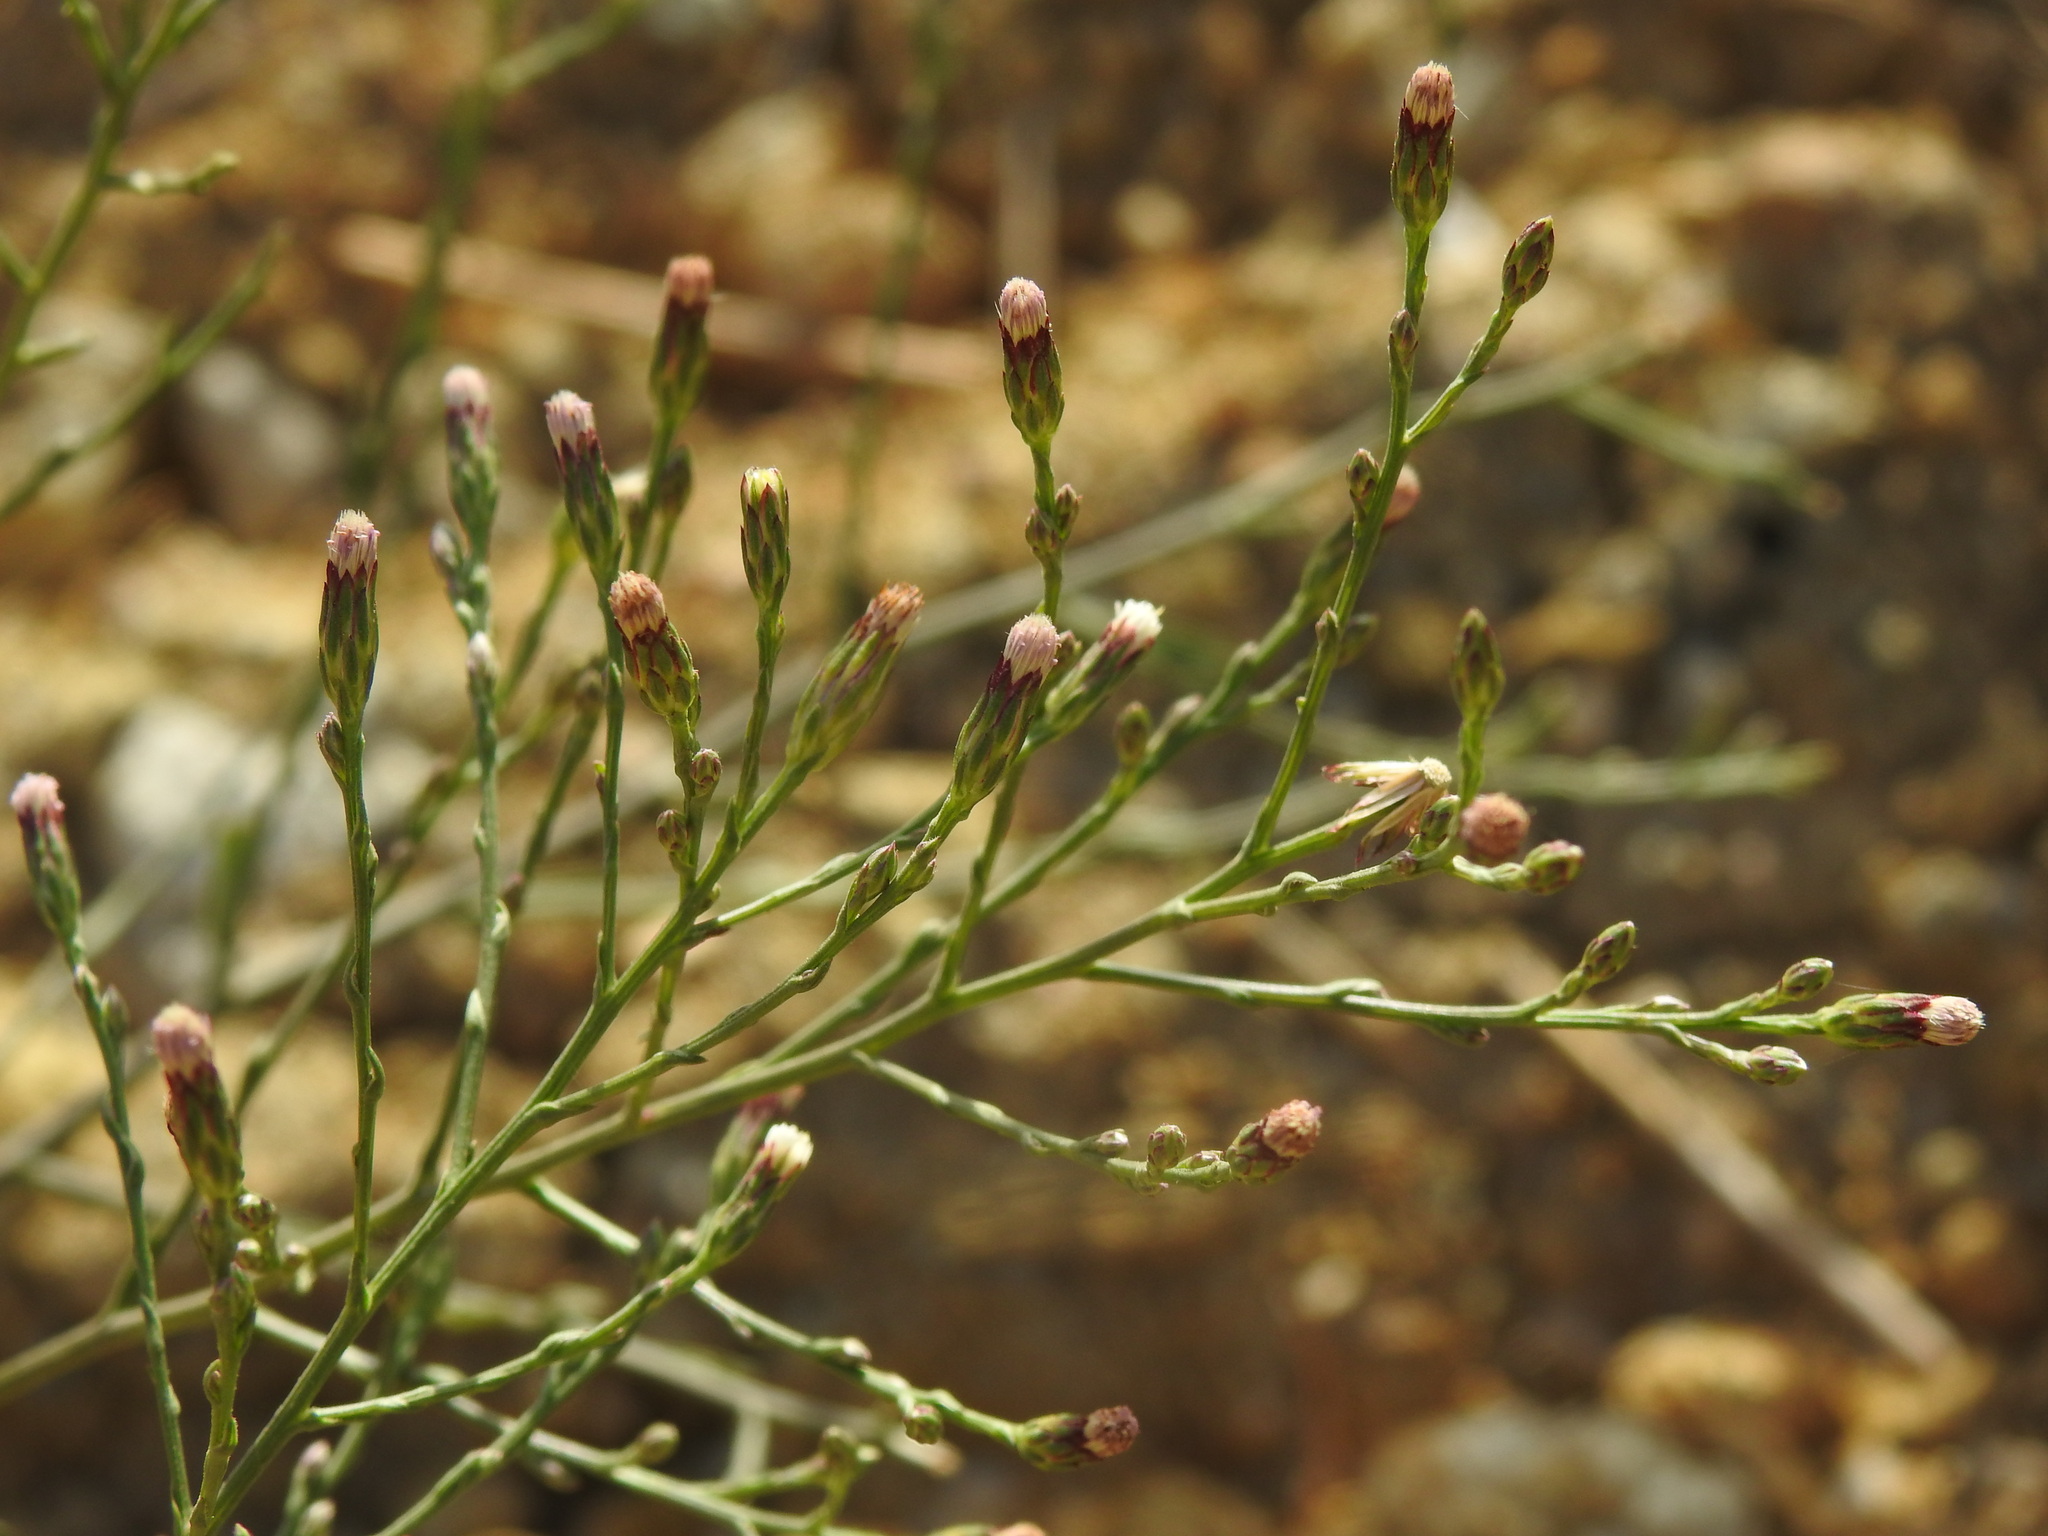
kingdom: Plantae
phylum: Tracheophyta
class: Magnoliopsida
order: Asterales
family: Asteraceae
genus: Symphyotrichum
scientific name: Symphyotrichum squamatum
